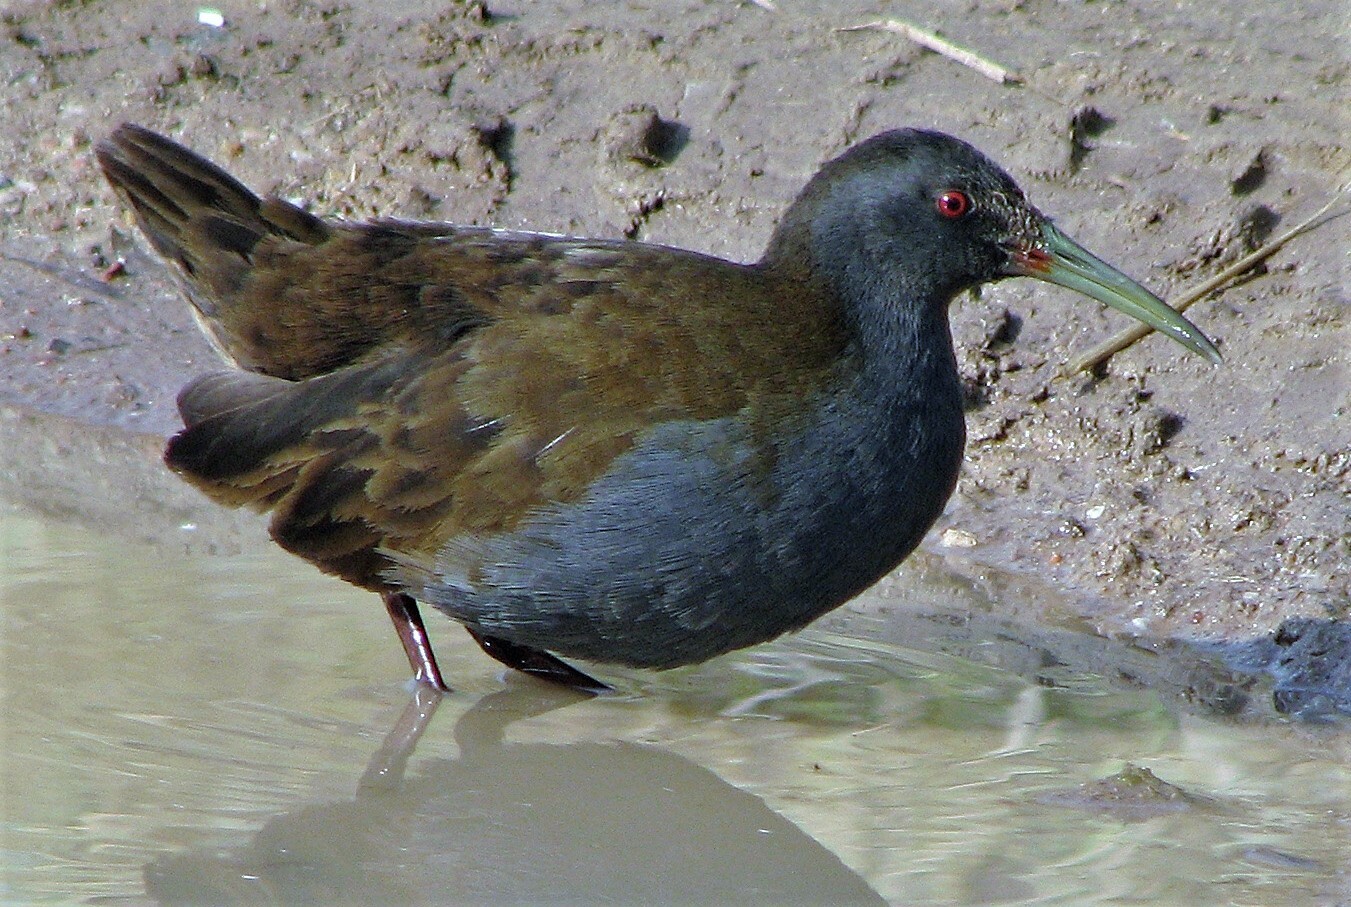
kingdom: Animalia
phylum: Chordata
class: Aves
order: Gruiformes
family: Rallidae
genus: Pardirallus
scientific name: Pardirallus sanguinolentus
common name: Plumbeous rail
